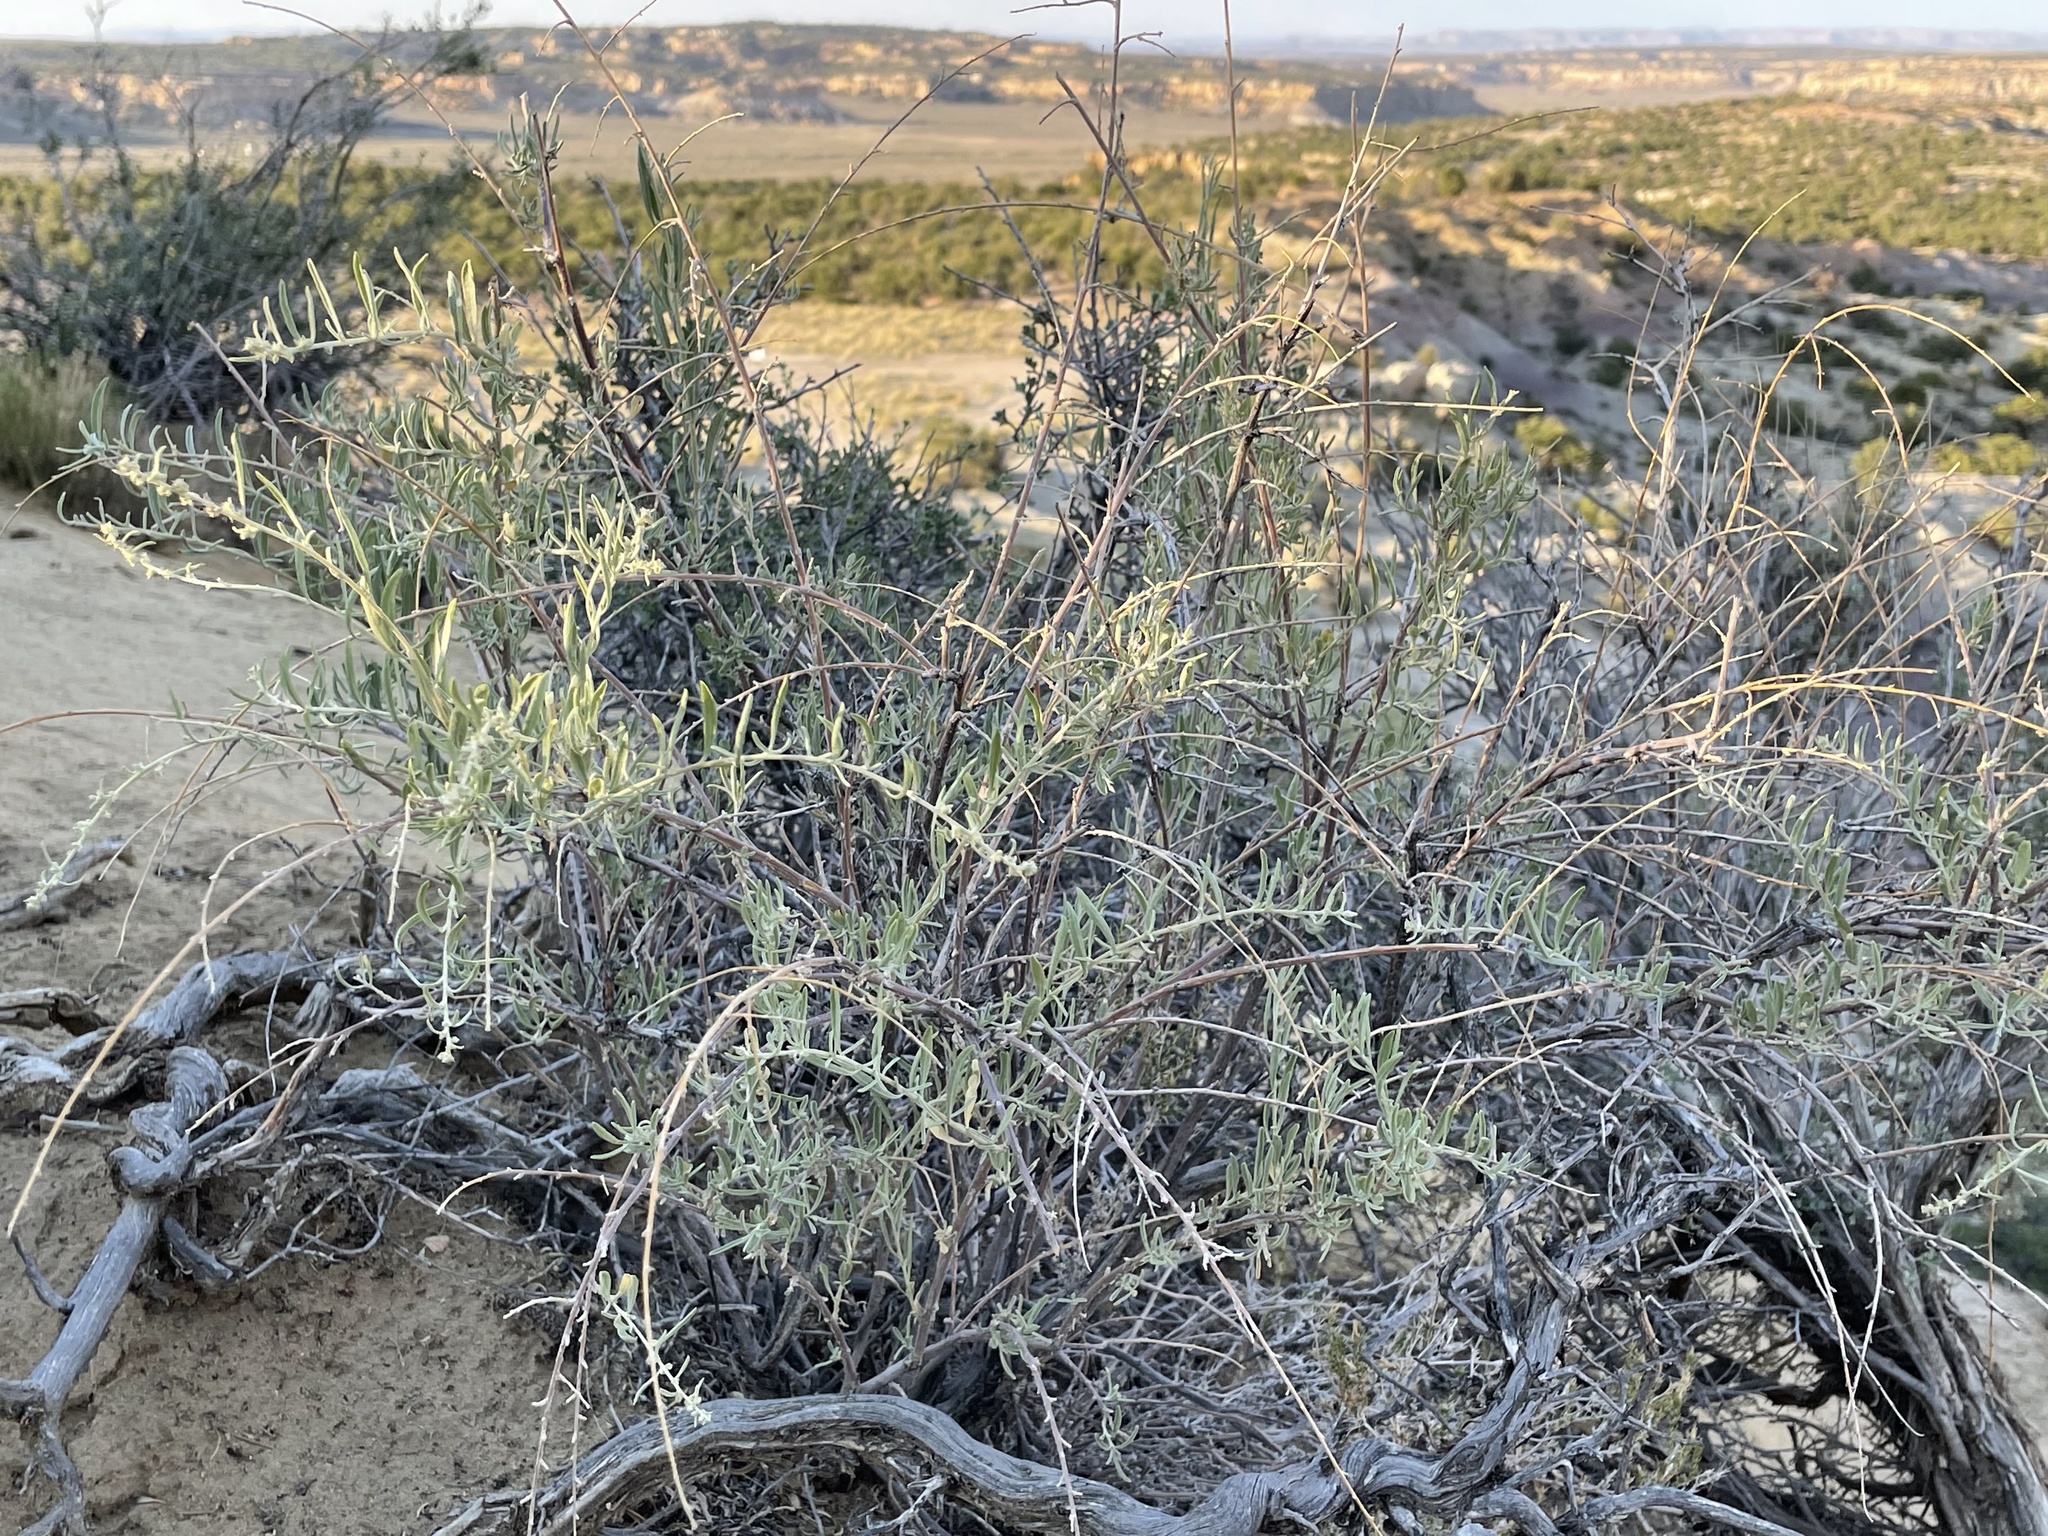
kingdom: Plantae
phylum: Tracheophyta
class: Magnoliopsida
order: Caryophyllales
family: Amaranthaceae
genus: Atriplex
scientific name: Atriplex canescens
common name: Four-wing saltbush
